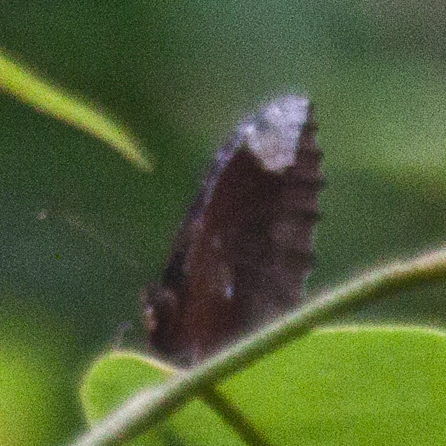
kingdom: Animalia
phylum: Arthropoda
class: Insecta
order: Lepidoptera
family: Nymphalidae
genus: Elymnias
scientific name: Elymnias hypermnestra
